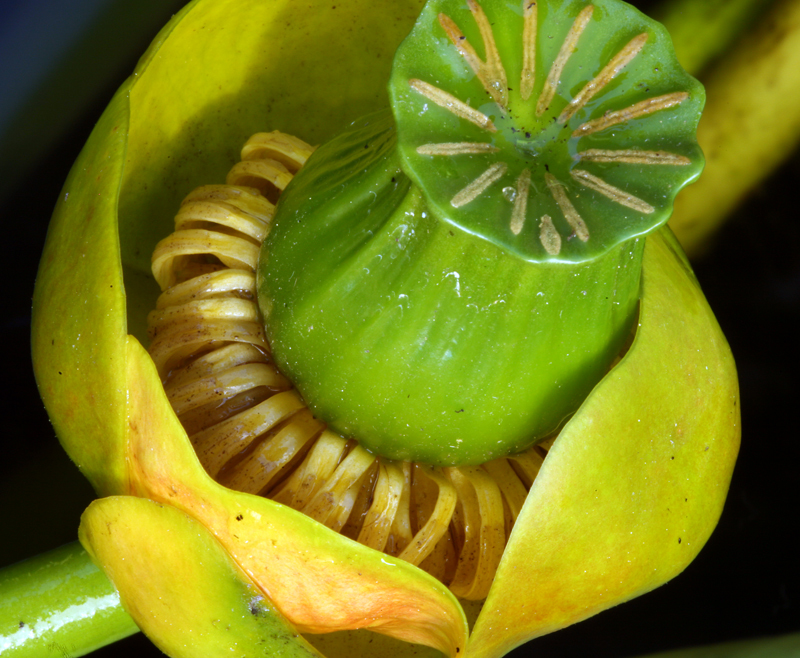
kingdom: Plantae
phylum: Tracheophyta
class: Magnoliopsida
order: Nymphaeales
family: Nymphaeaceae
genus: Nuphar
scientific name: Nuphar polysepala
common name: Rocky mountain cow-lily
